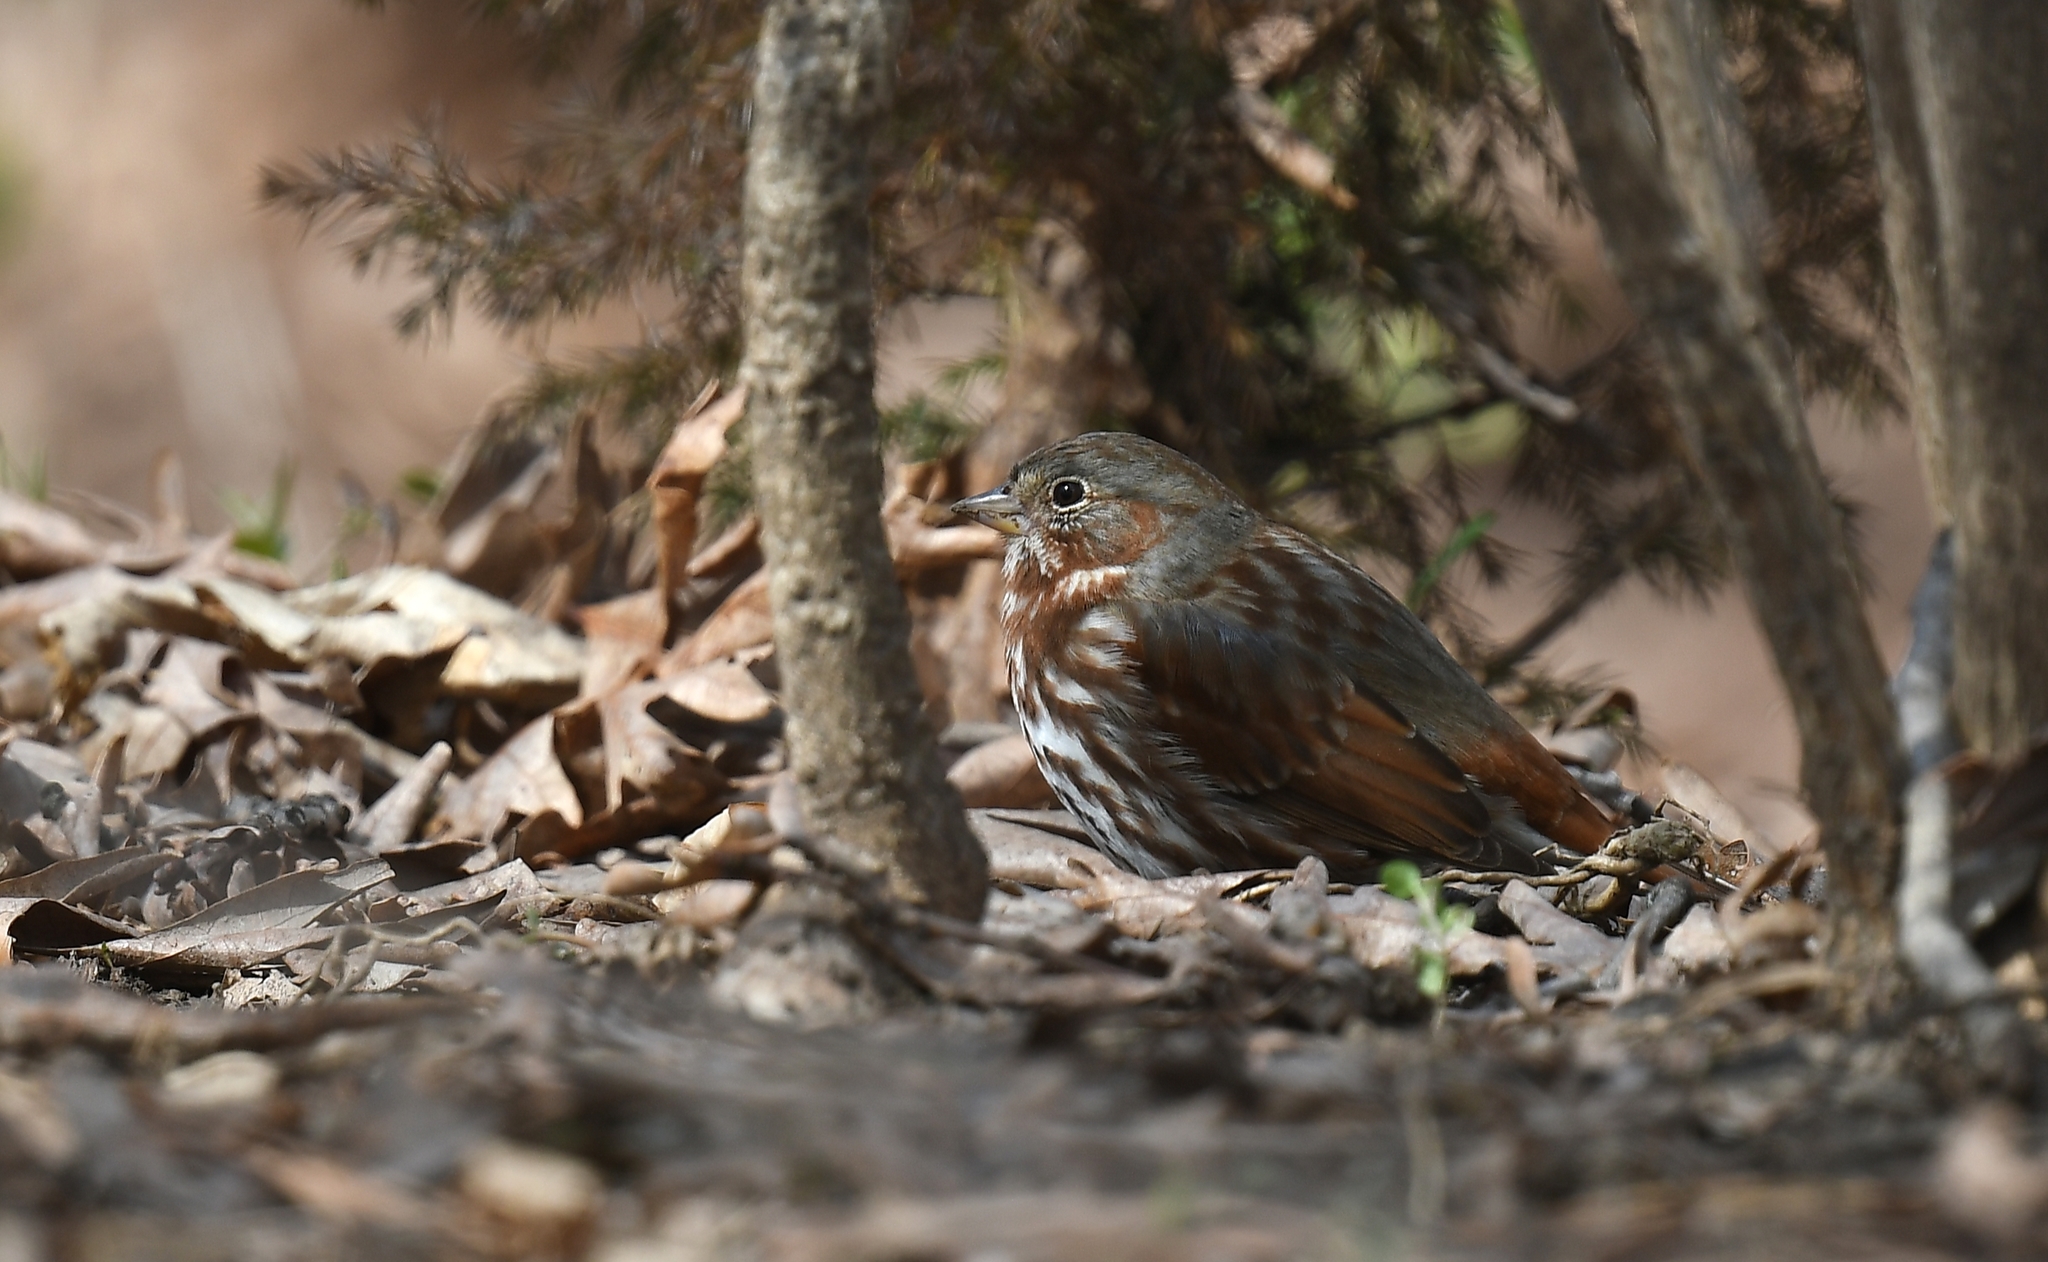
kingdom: Animalia
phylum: Chordata
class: Aves
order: Passeriformes
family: Passerellidae
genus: Passerella
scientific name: Passerella iliaca
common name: Fox sparrow
